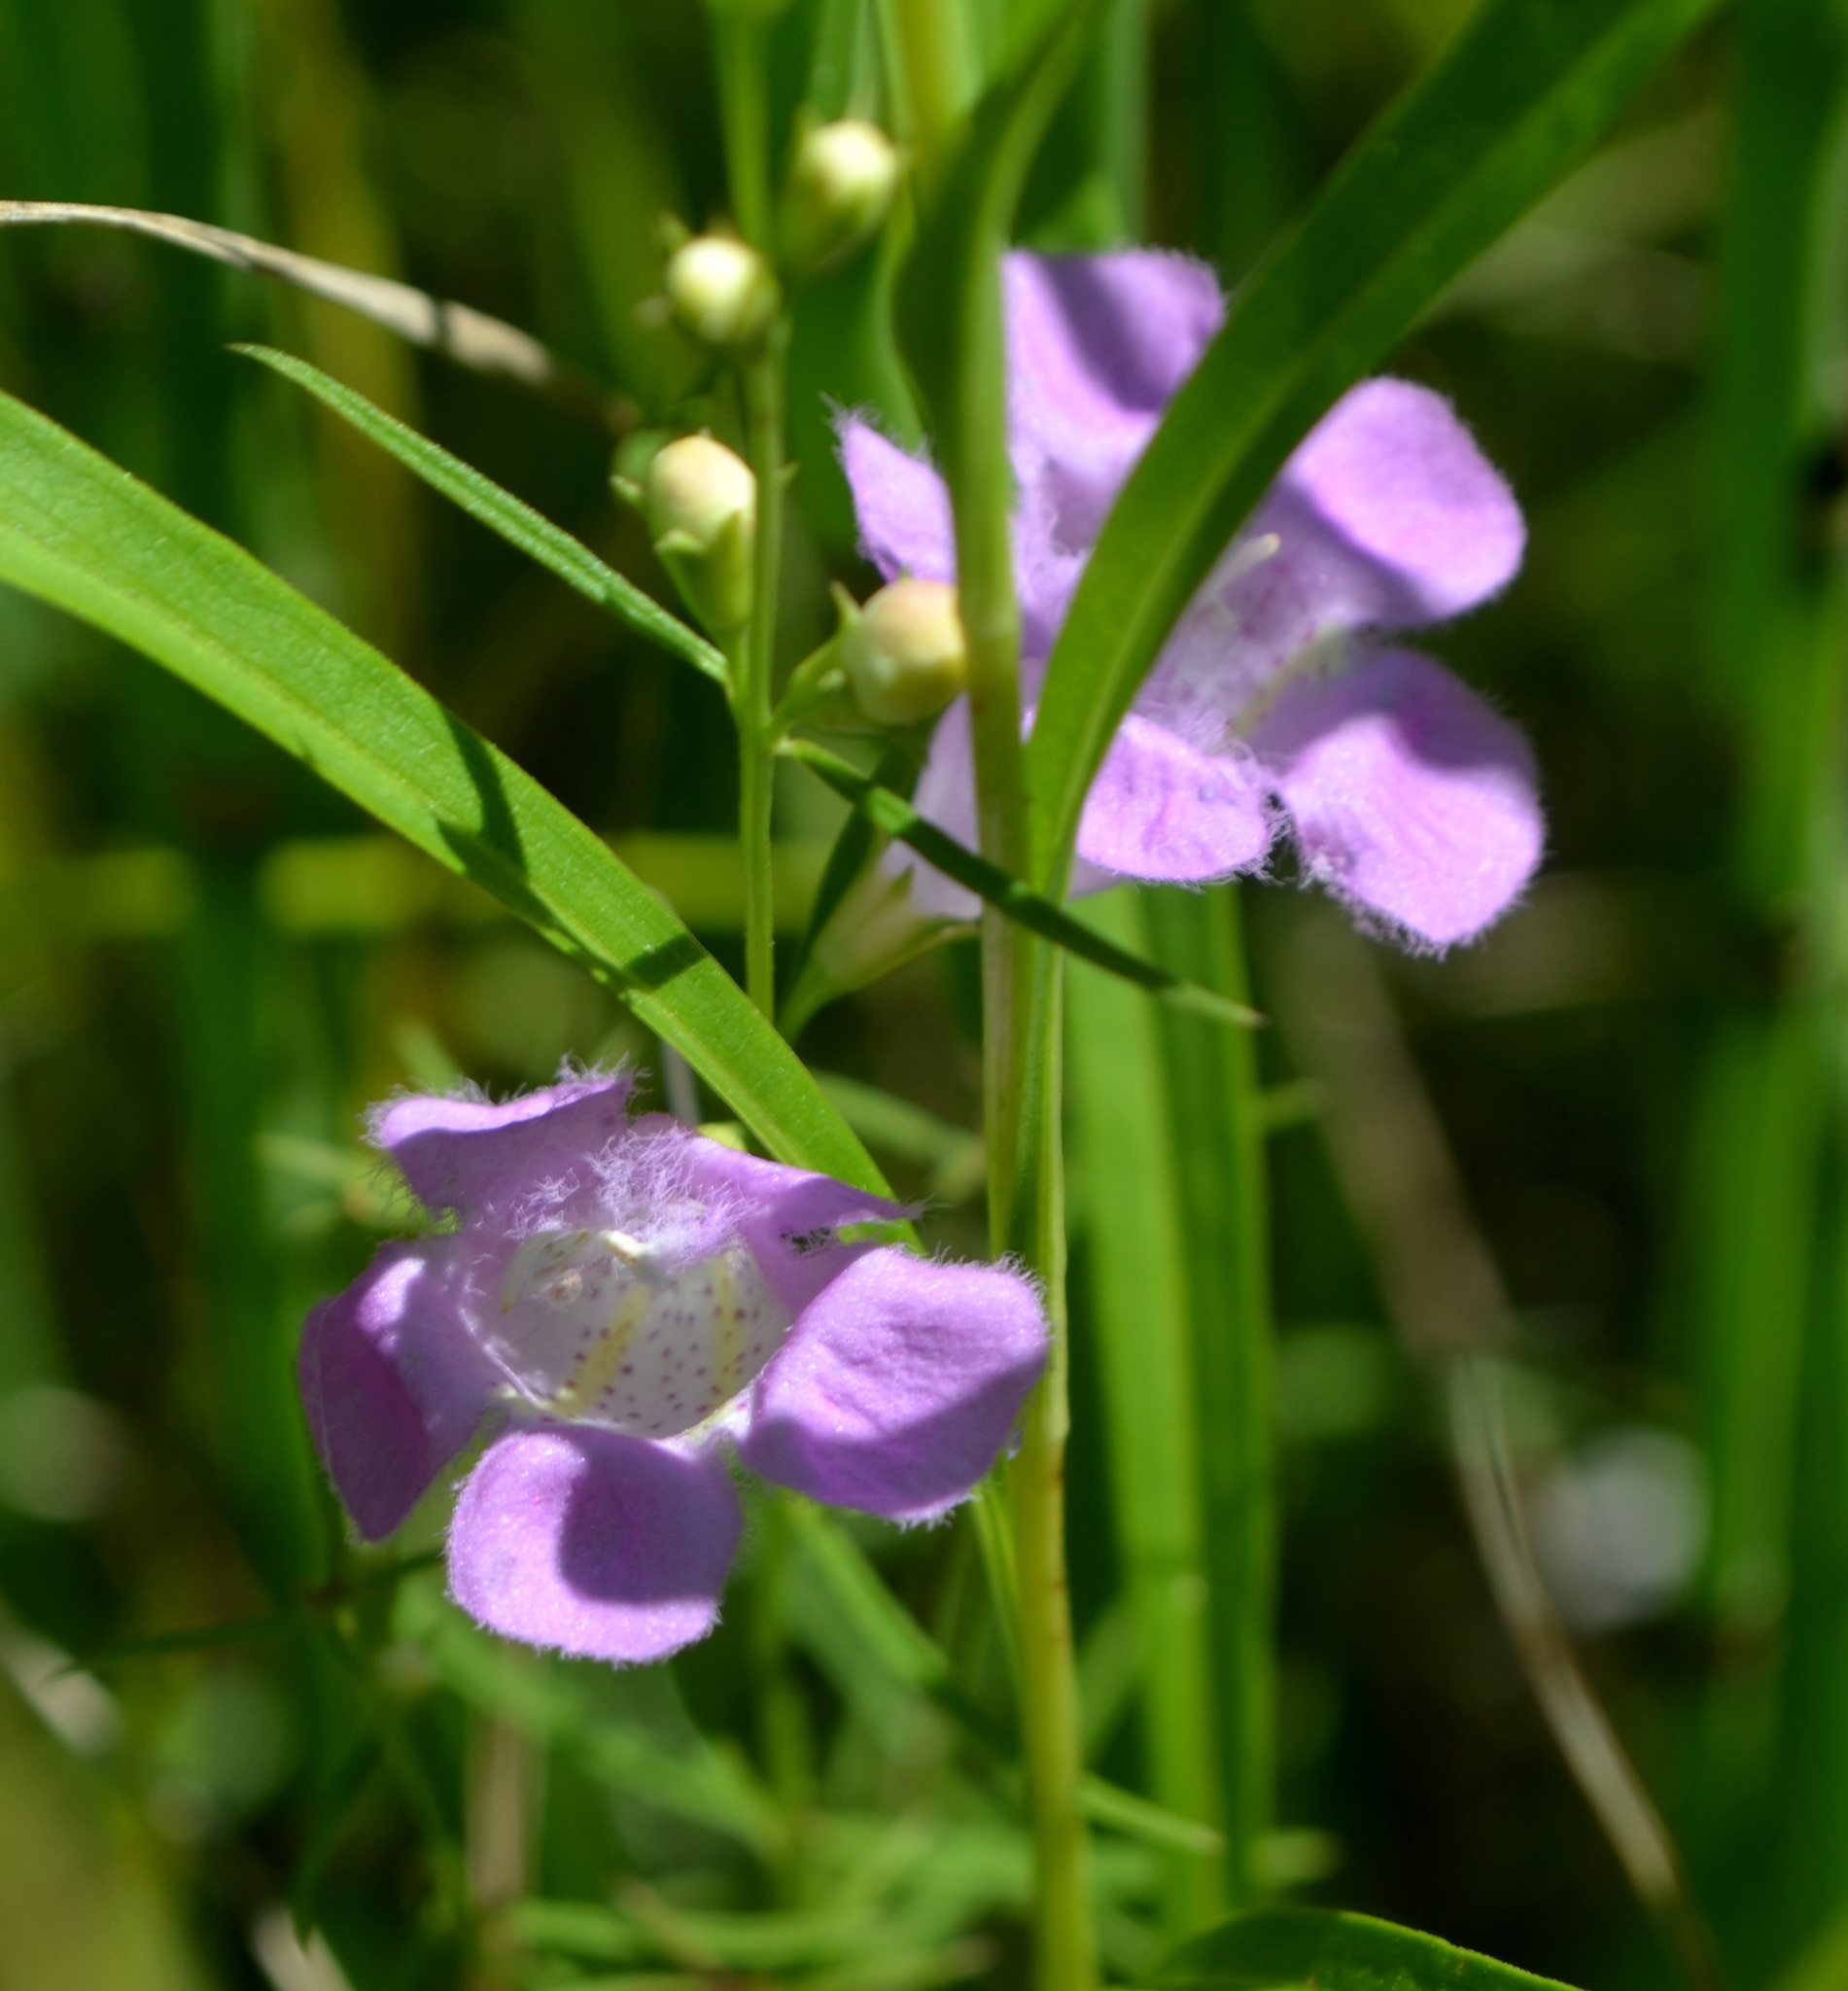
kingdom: Plantae
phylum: Tracheophyta
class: Magnoliopsida
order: Lamiales
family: Orobanchaceae
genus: Agalinis
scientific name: Agalinis purpurea
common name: Purple false foxglove
